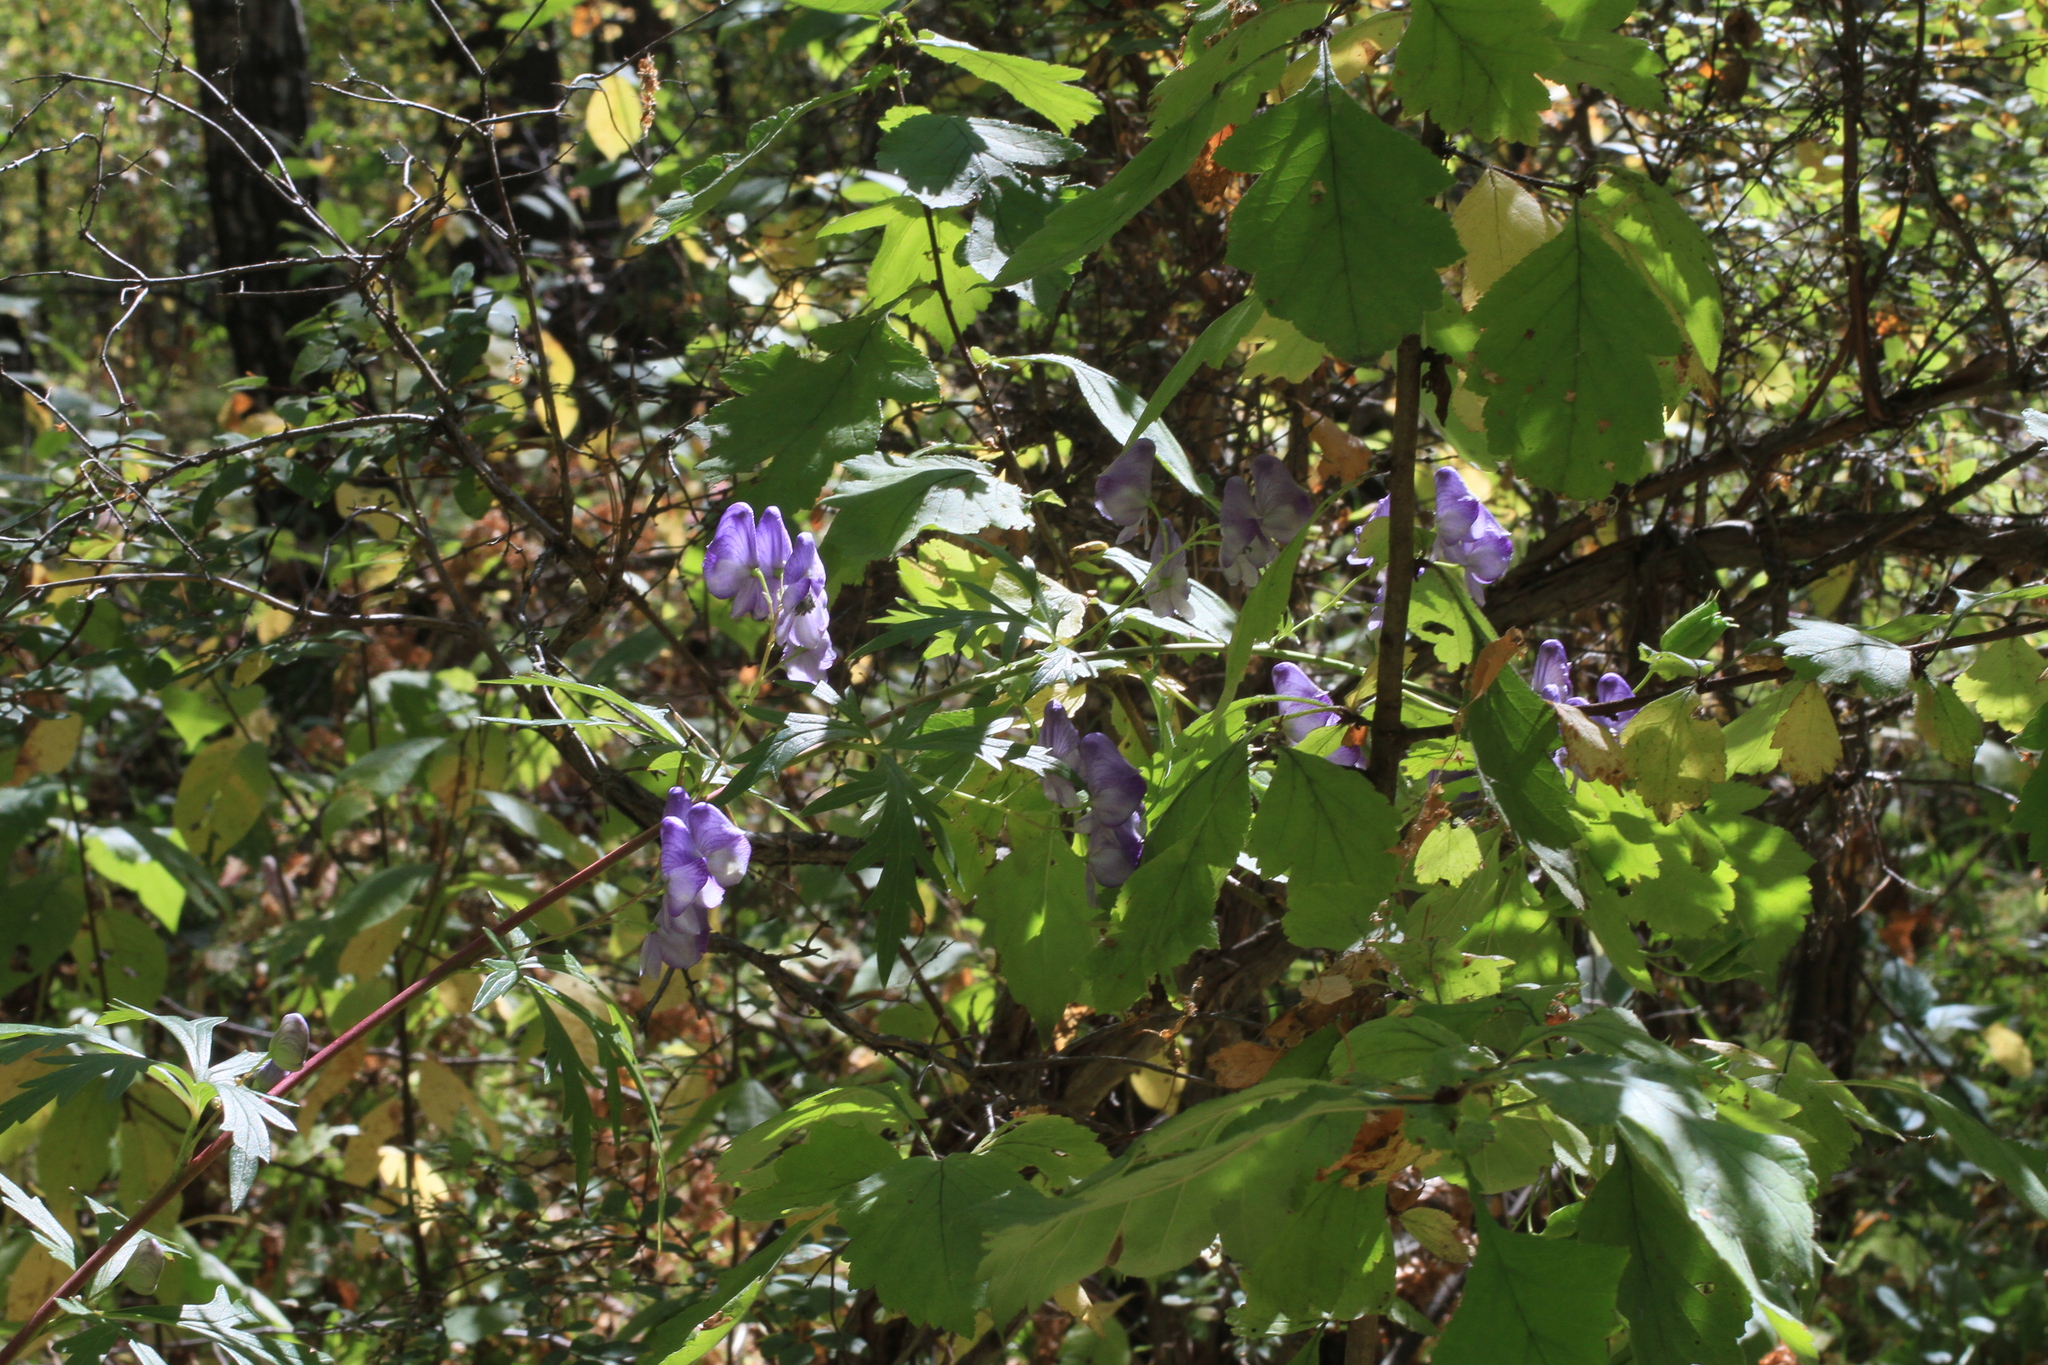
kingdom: Plantae
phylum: Tracheophyta
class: Magnoliopsida
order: Ranunculales
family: Ranunculaceae
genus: Aconitum
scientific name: Aconitum volubile
